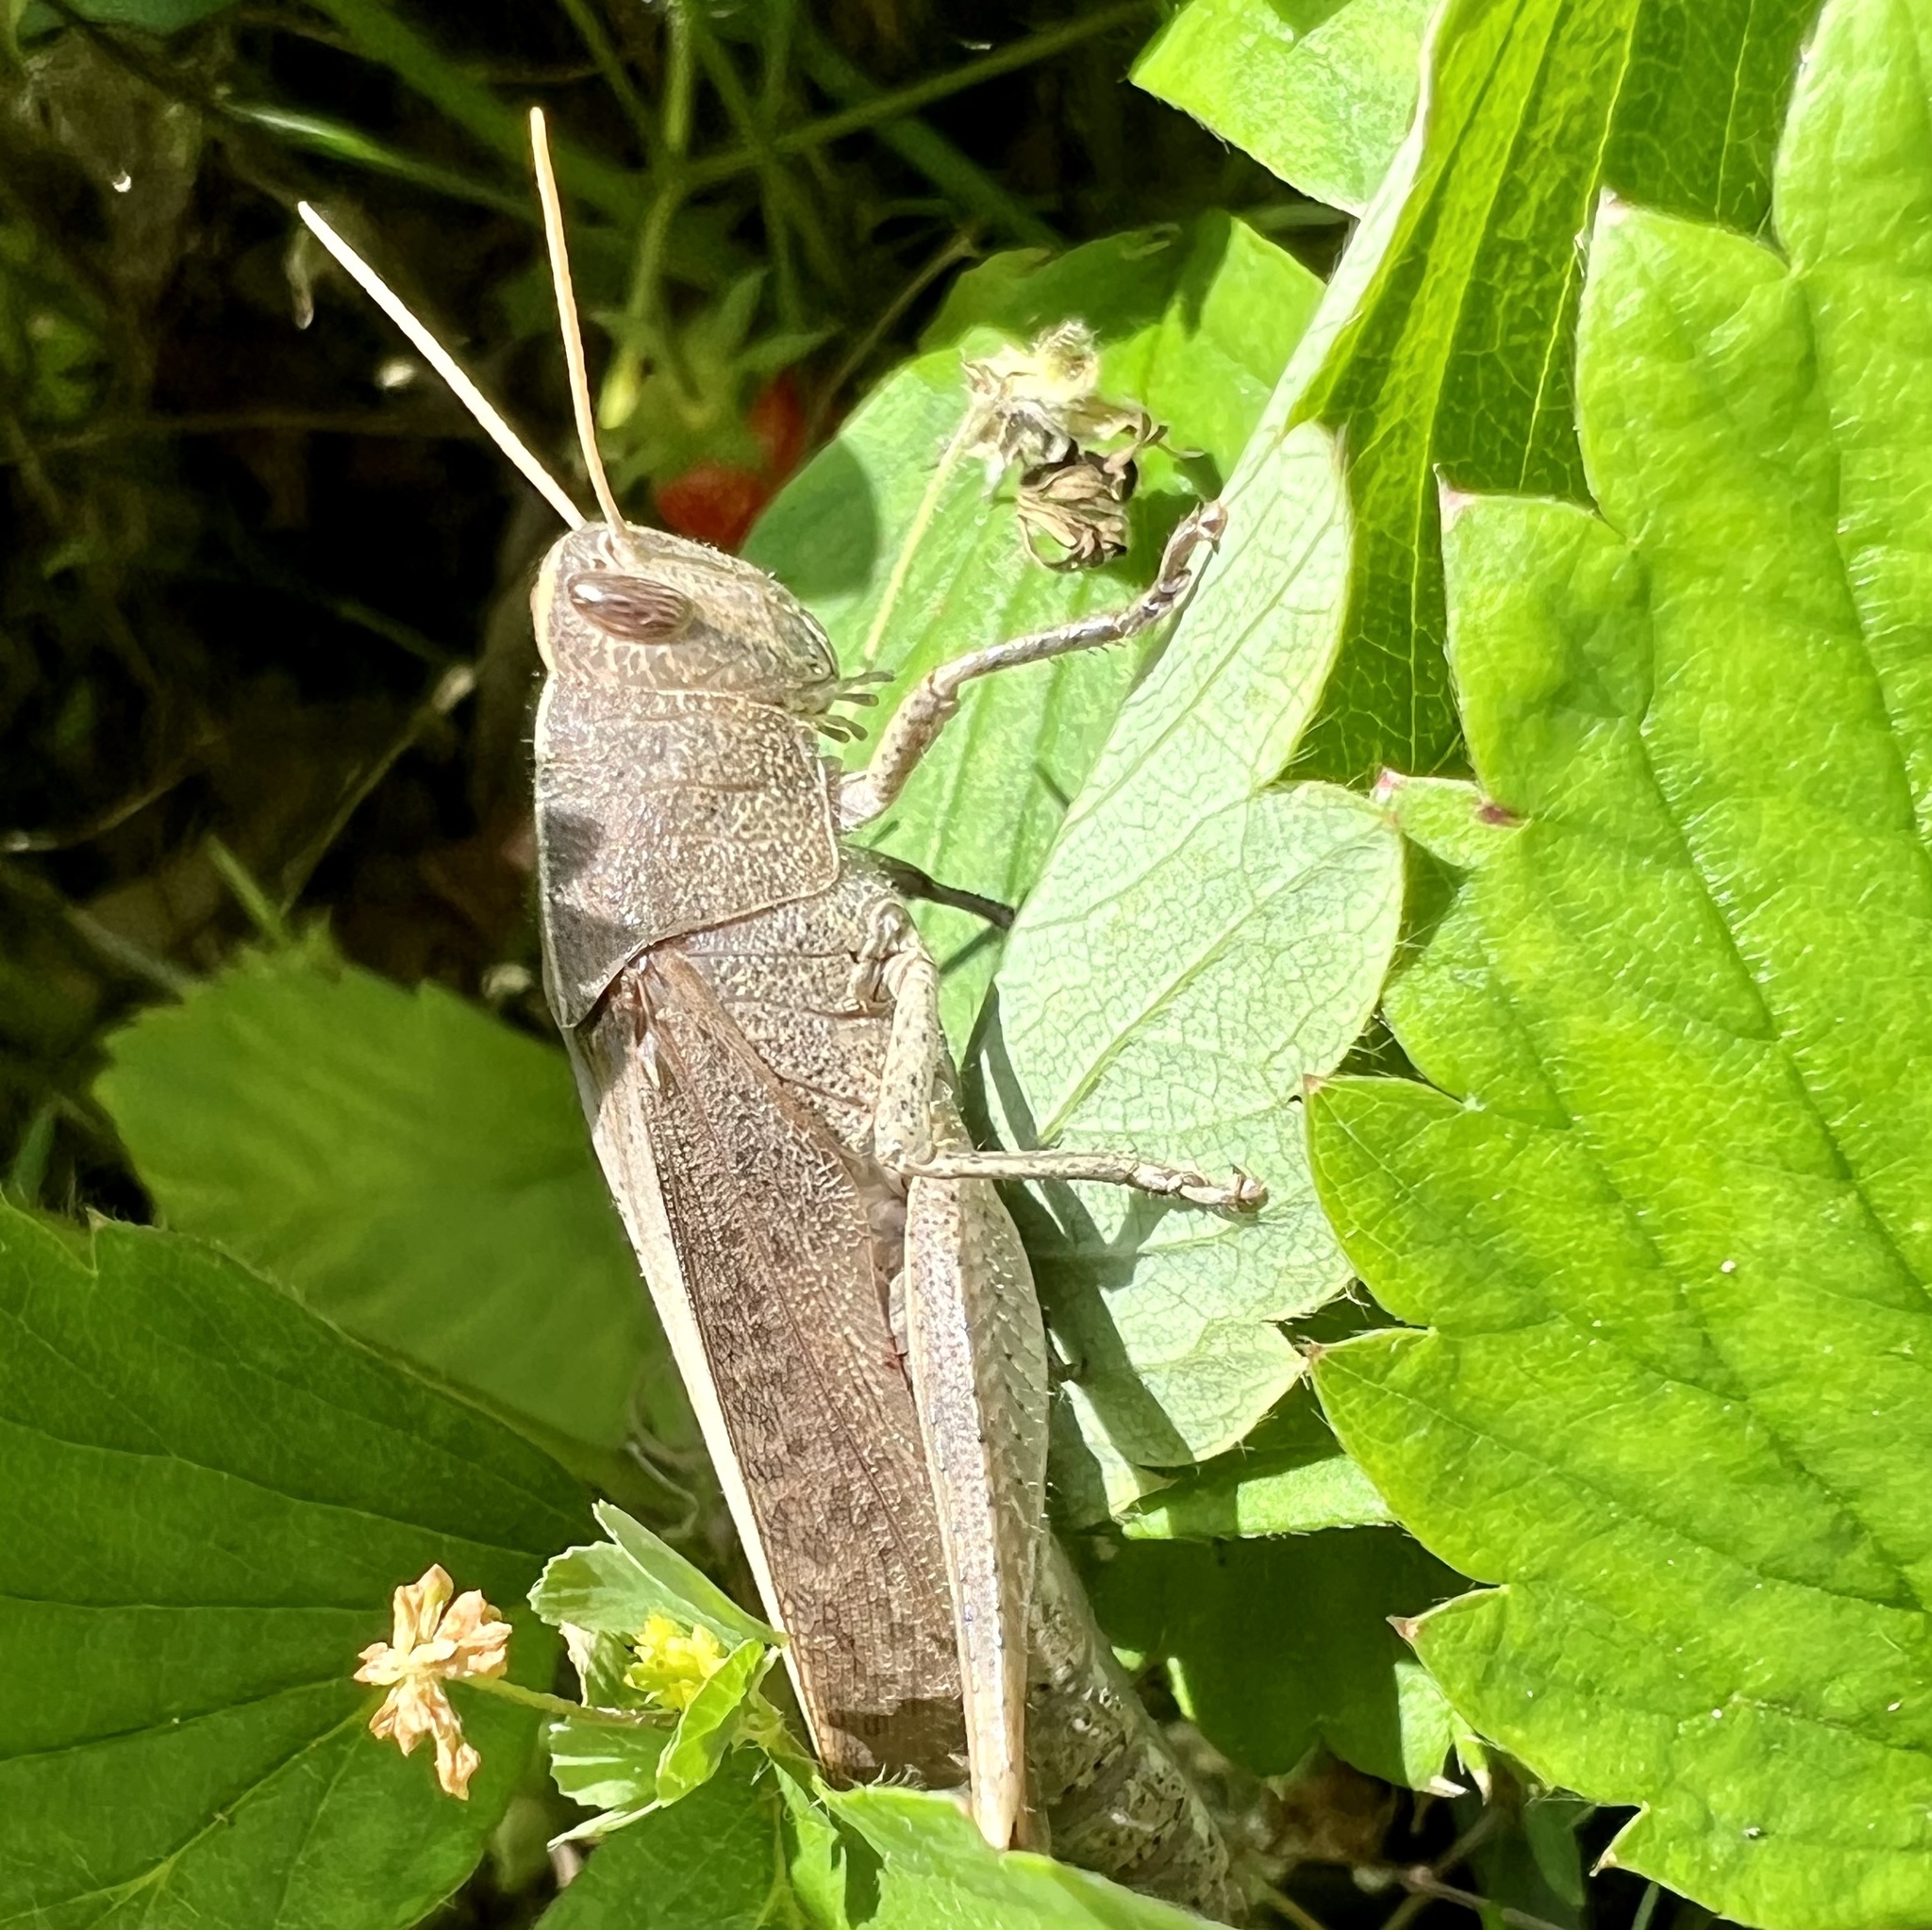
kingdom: Animalia
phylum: Arthropoda
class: Insecta
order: Orthoptera
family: Acrididae
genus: Schistocerca
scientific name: Schistocerca damnifica
